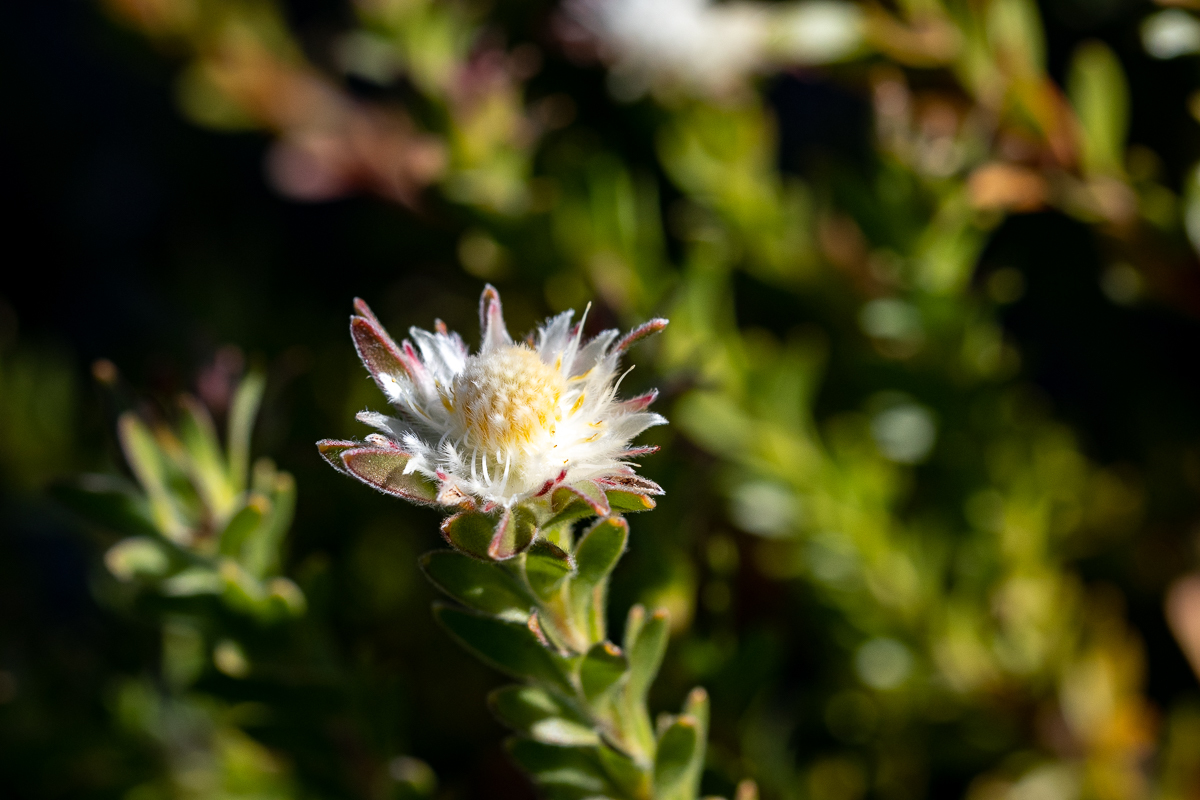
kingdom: Plantae
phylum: Tracheophyta
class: Magnoliopsida
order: Proteales
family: Proteaceae
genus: Diastella
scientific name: Diastella fraterna
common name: Palmiet silkypuff
